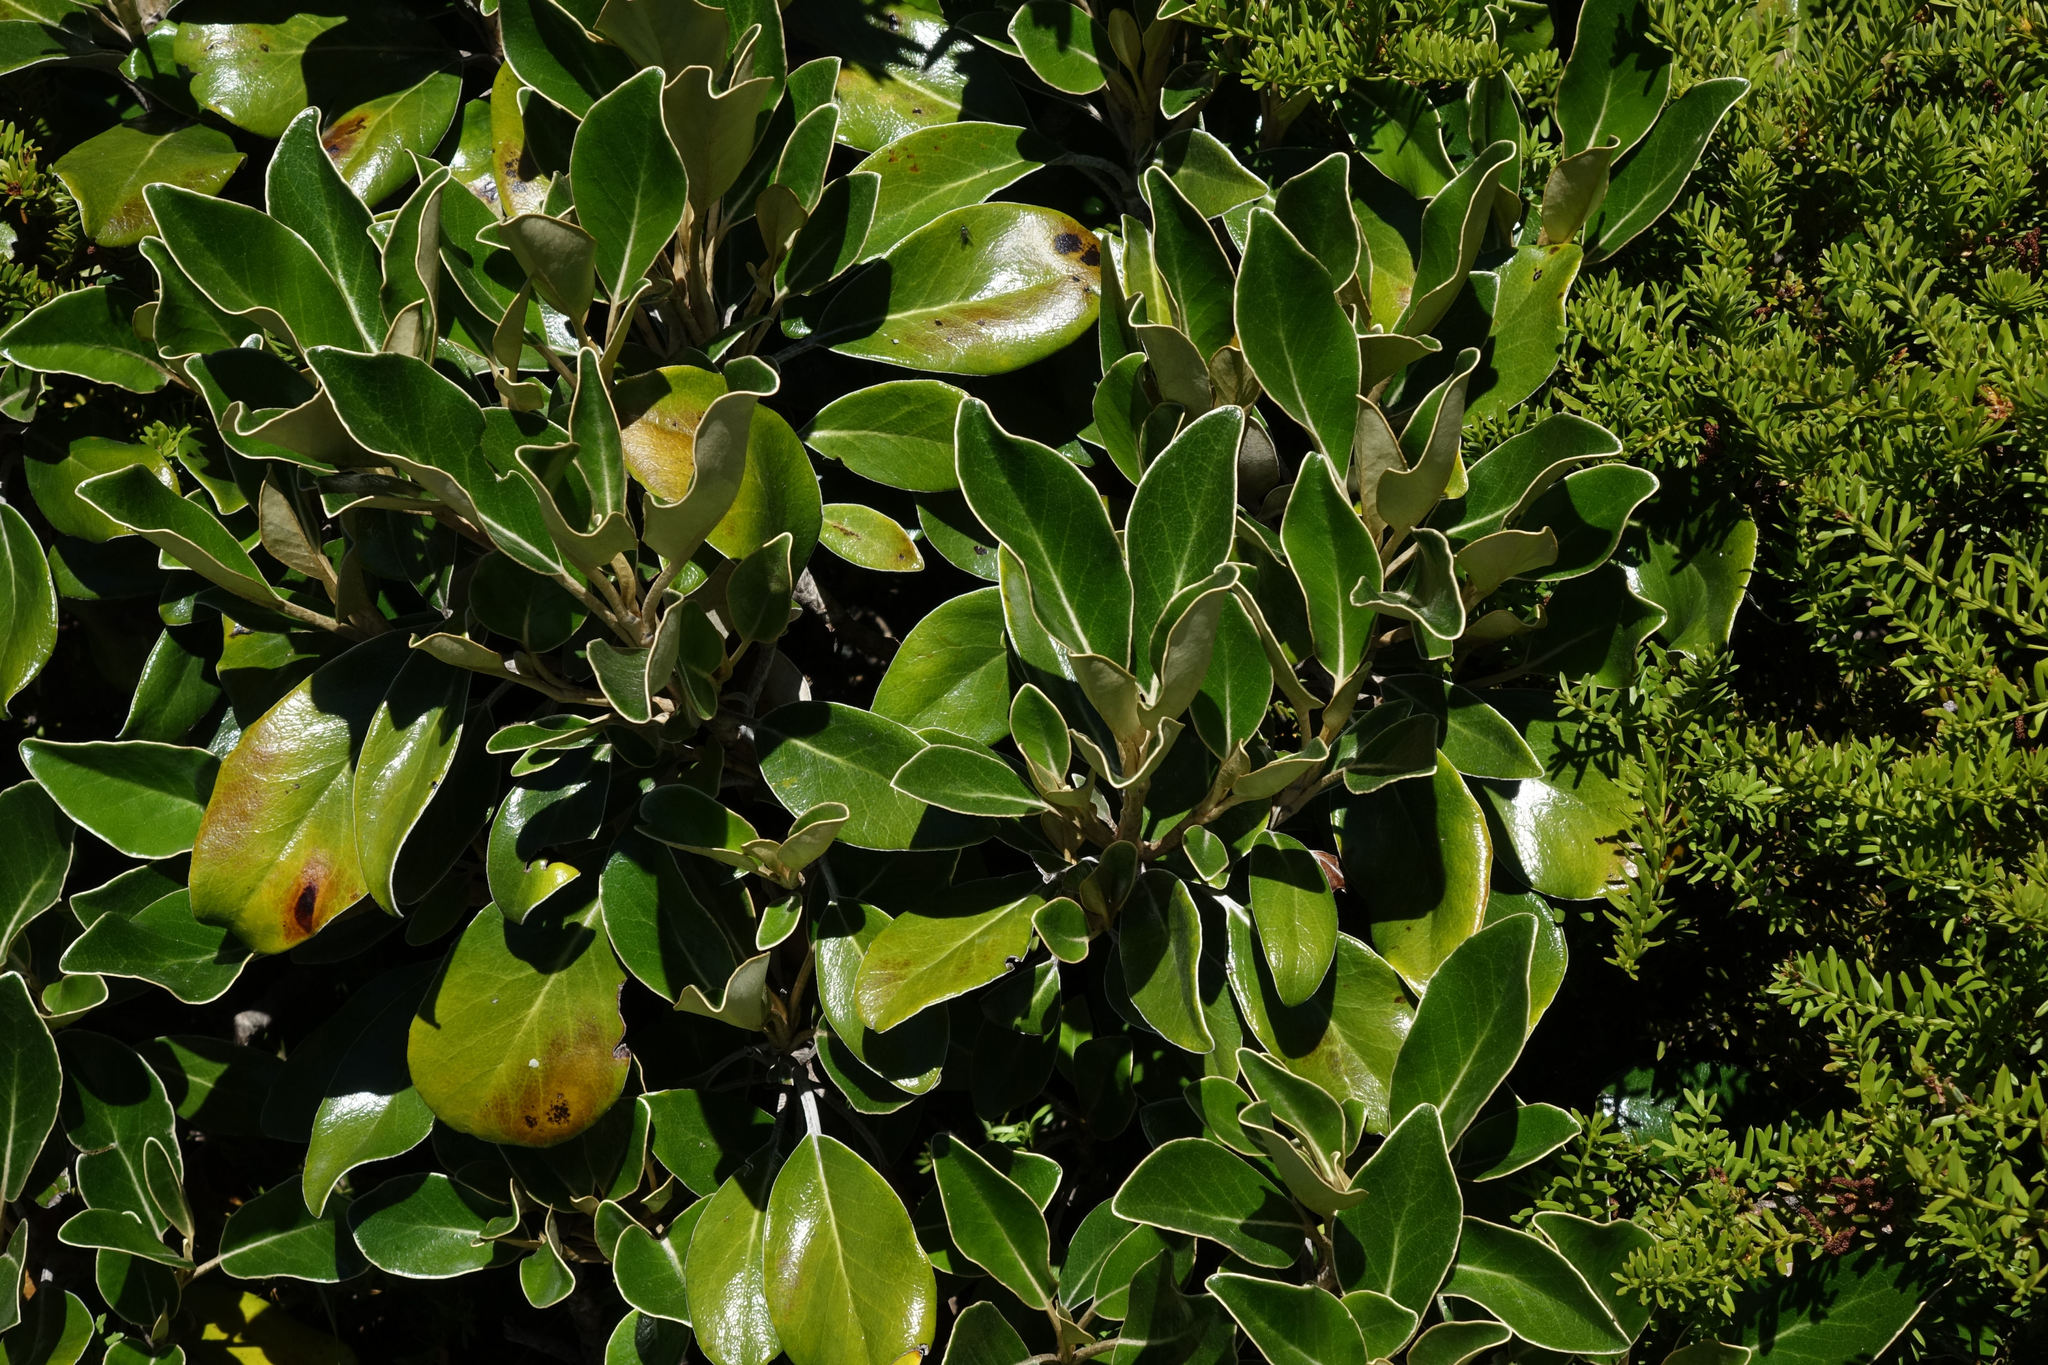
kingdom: Plantae
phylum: Tracheophyta
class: Magnoliopsida
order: Asterales
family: Asteraceae
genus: Brachyglottis
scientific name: Brachyglottis elaeagnifolia
